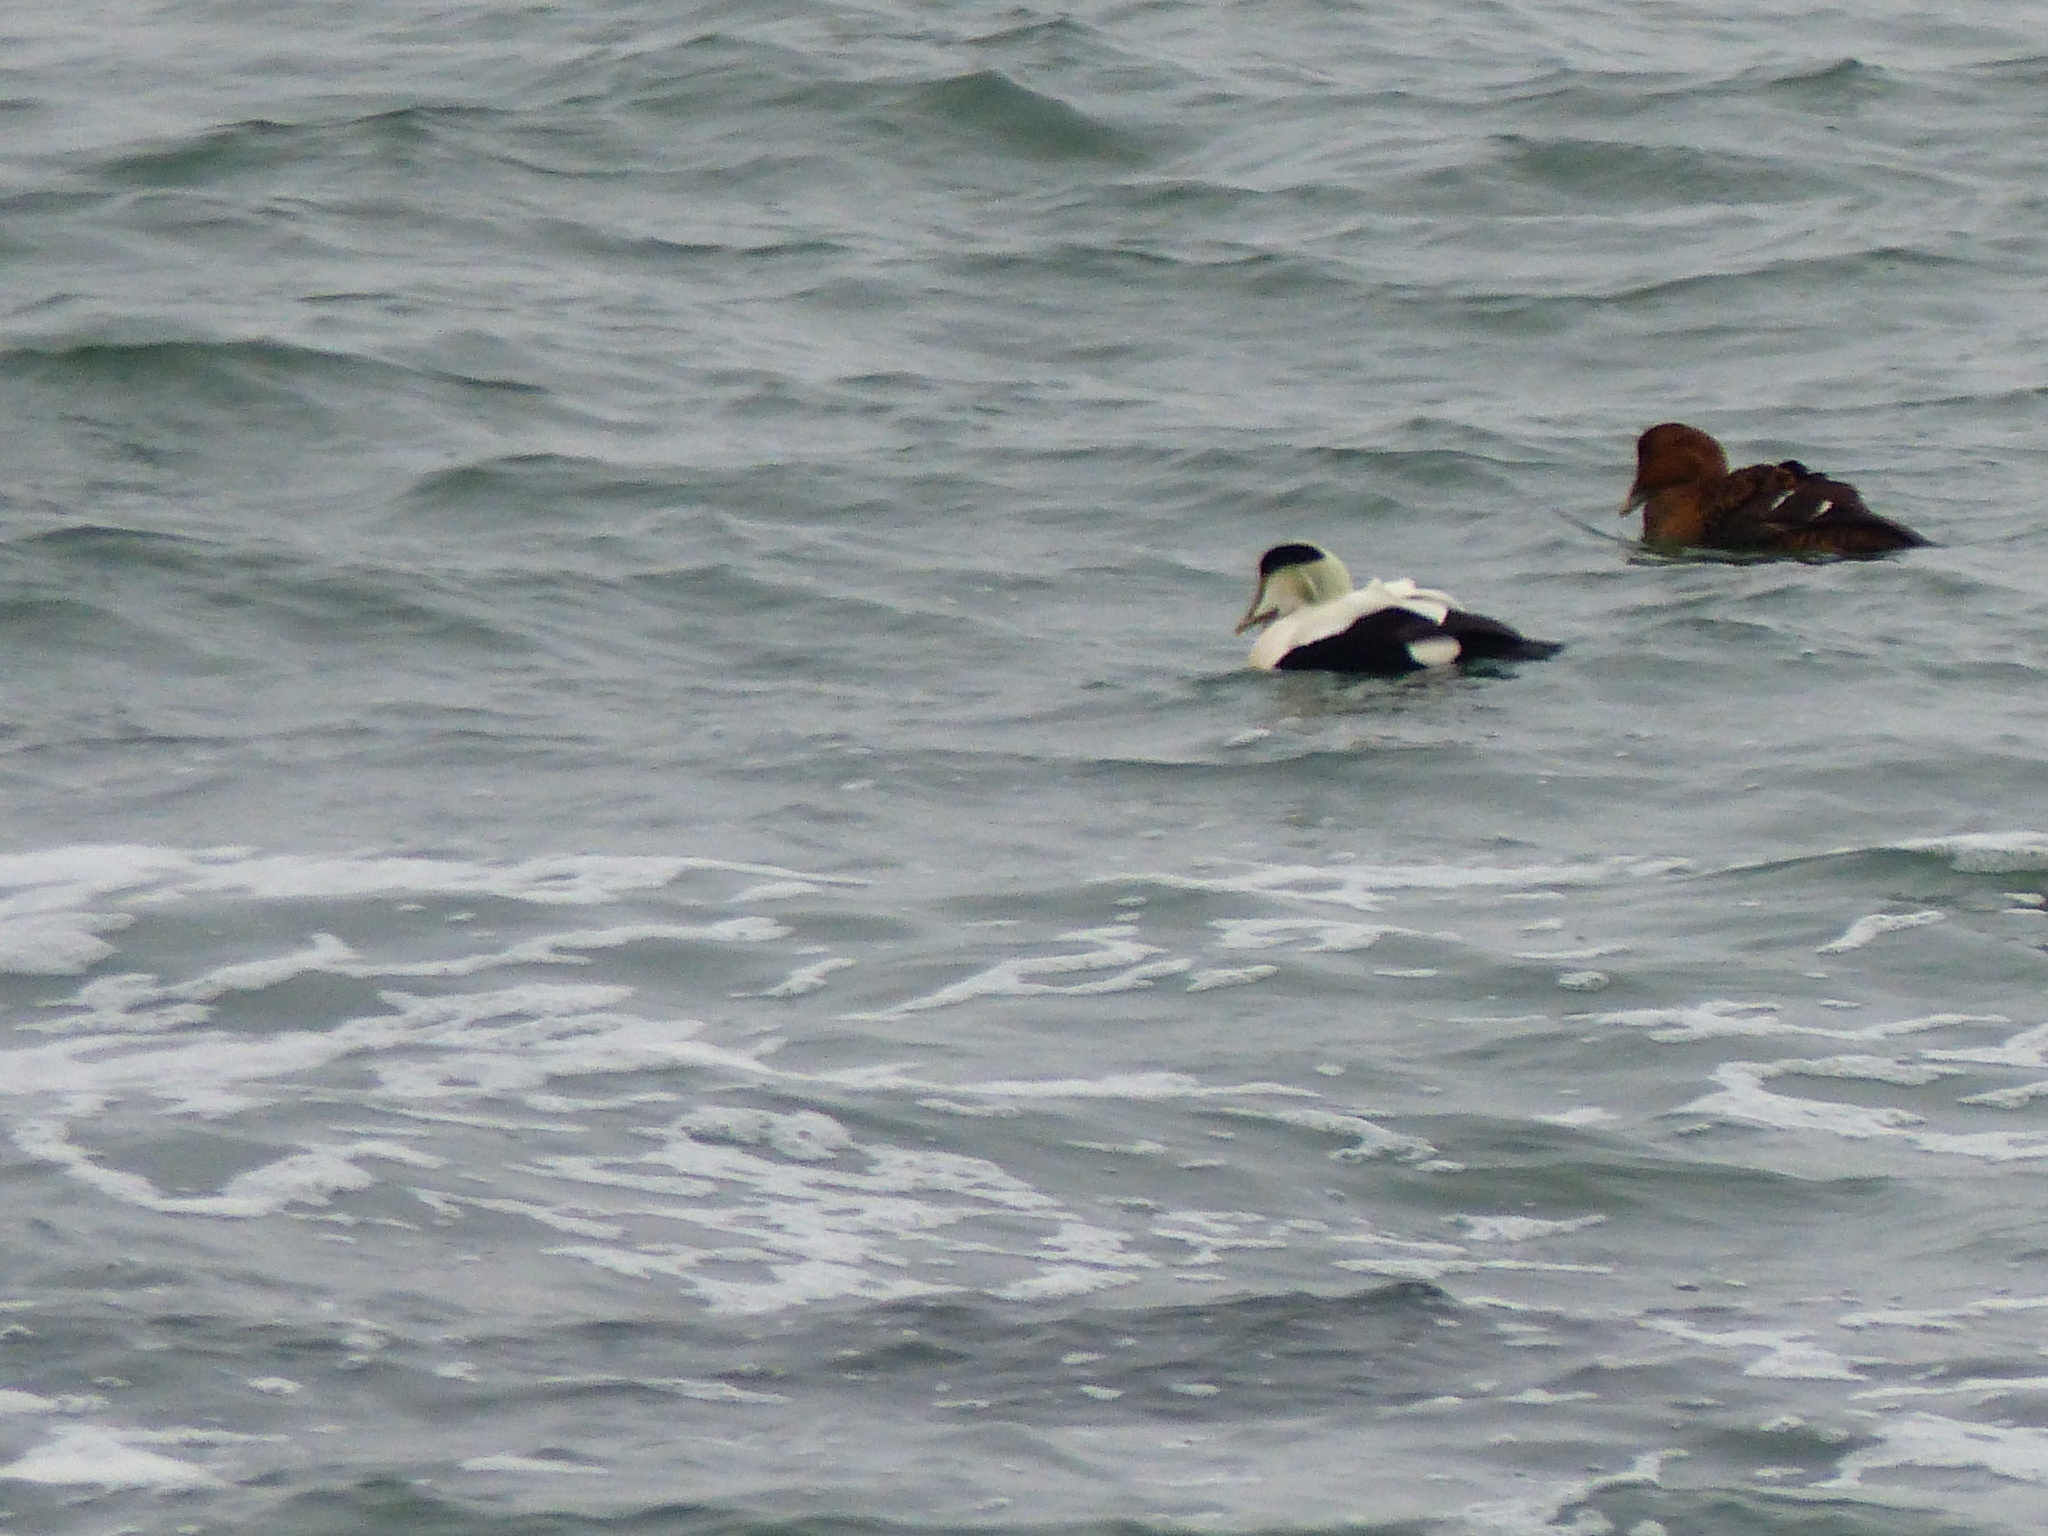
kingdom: Animalia
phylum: Chordata
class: Aves
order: Anseriformes
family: Anatidae
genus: Somateria
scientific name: Somateria mollissima
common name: Common eider
